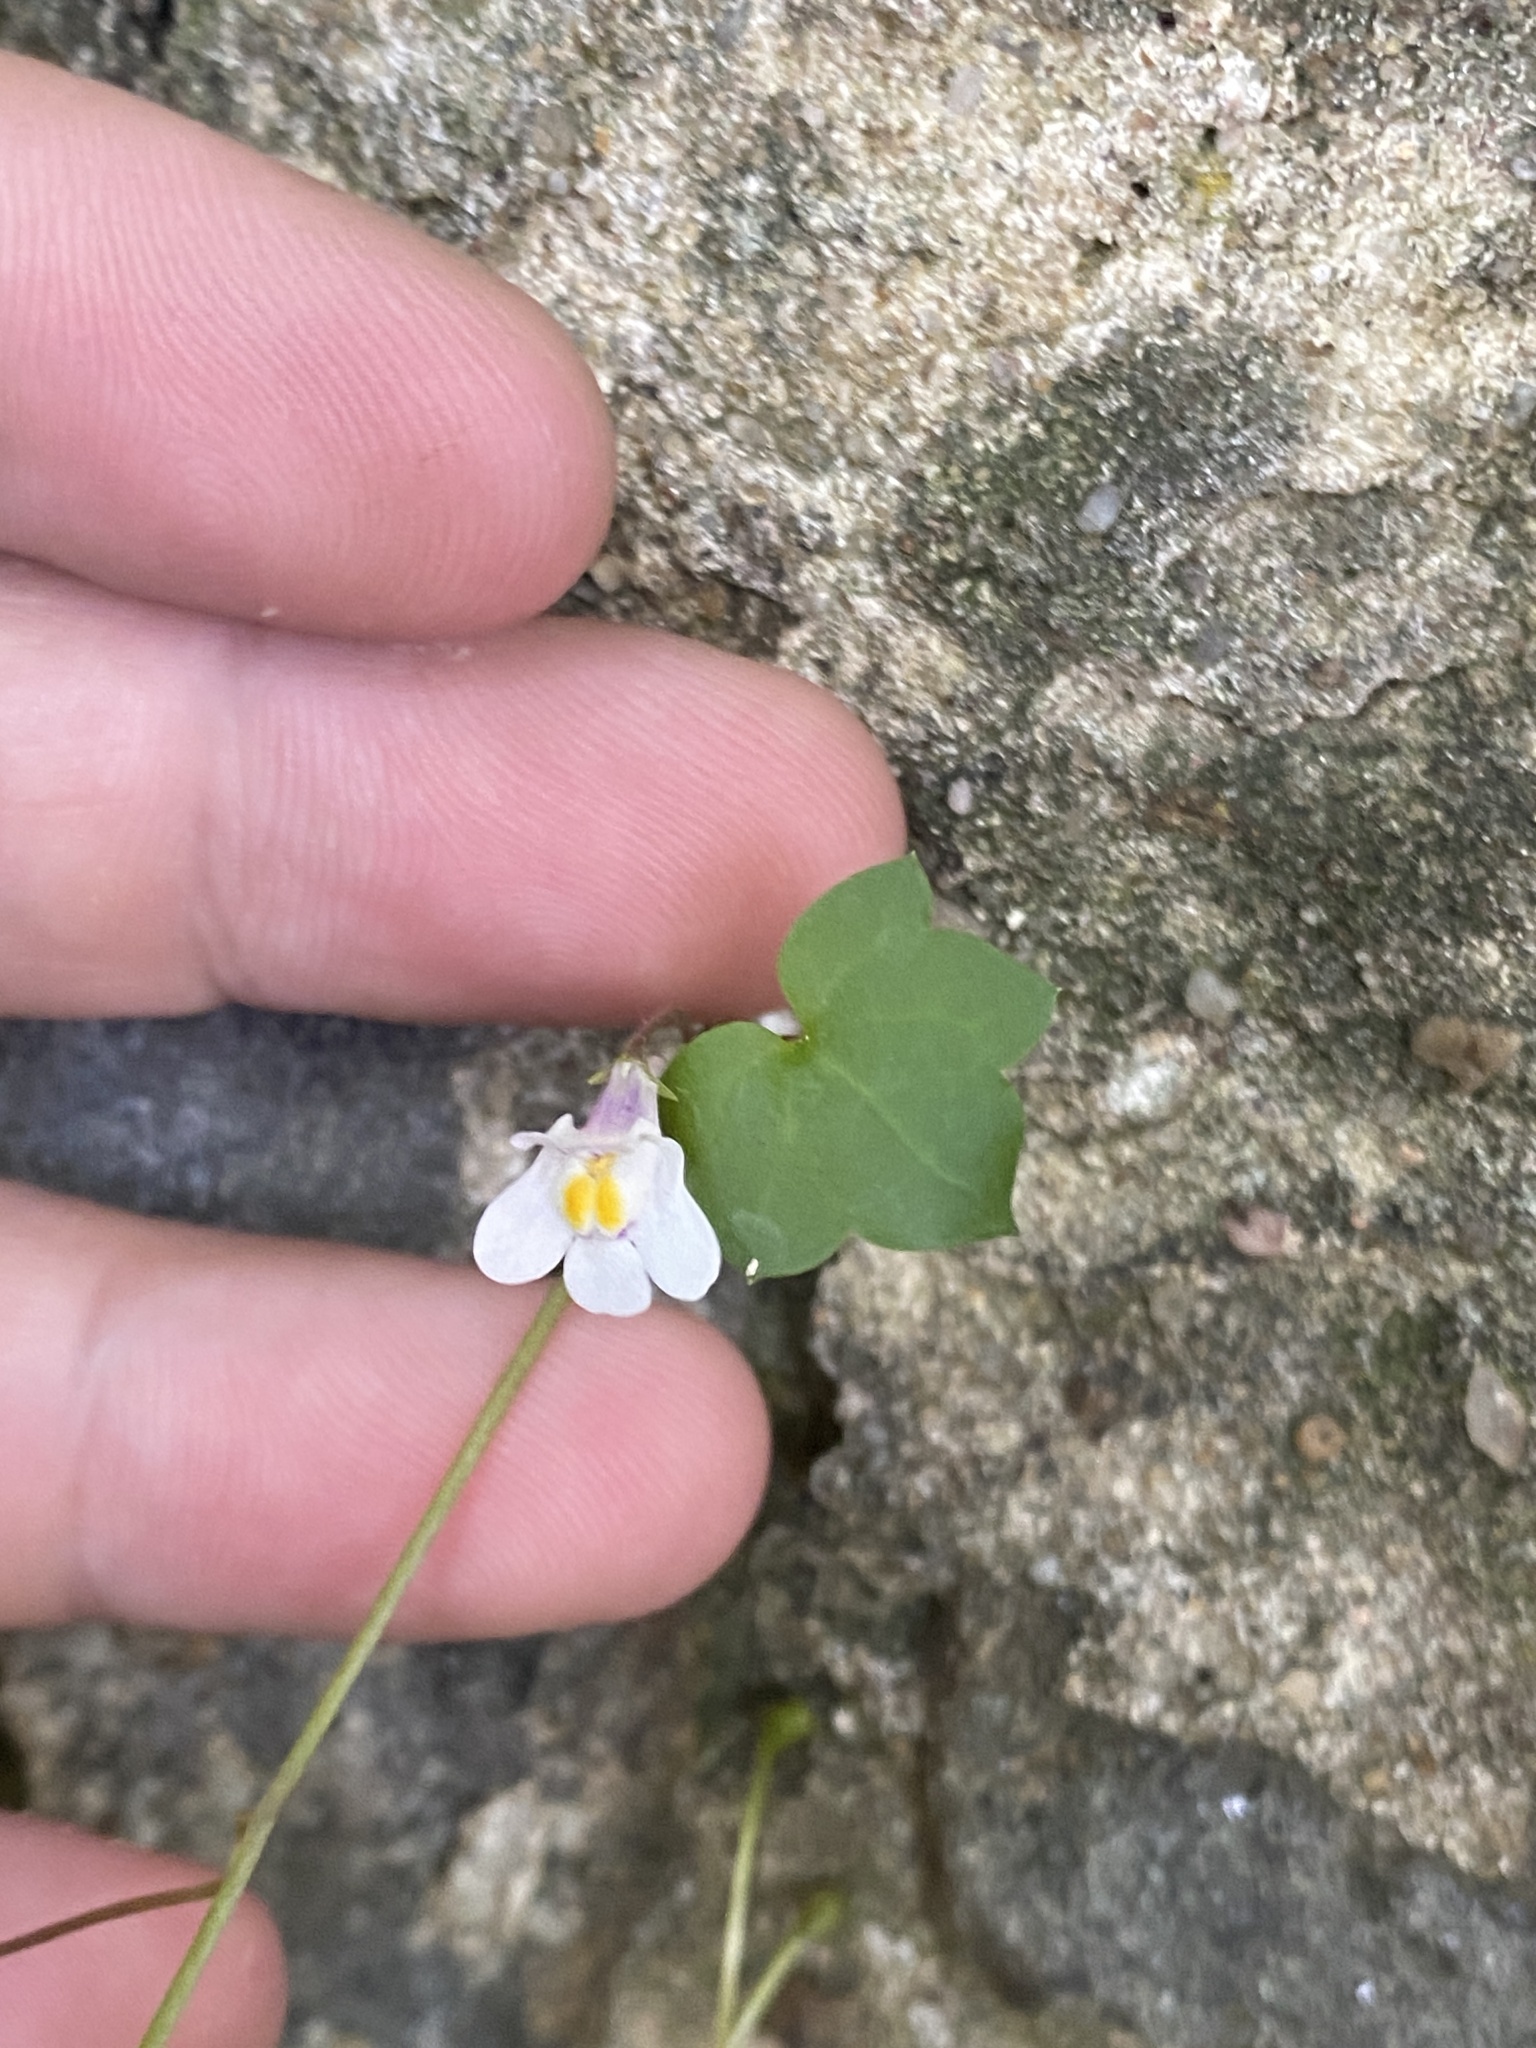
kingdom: Plantae
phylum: Tracheophyta
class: Magnoliopsida
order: Lamiales
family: Plantaginaceae
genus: Cymbalaria
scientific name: Cymbalaria muralis
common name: Ivy-leaved toadflax
